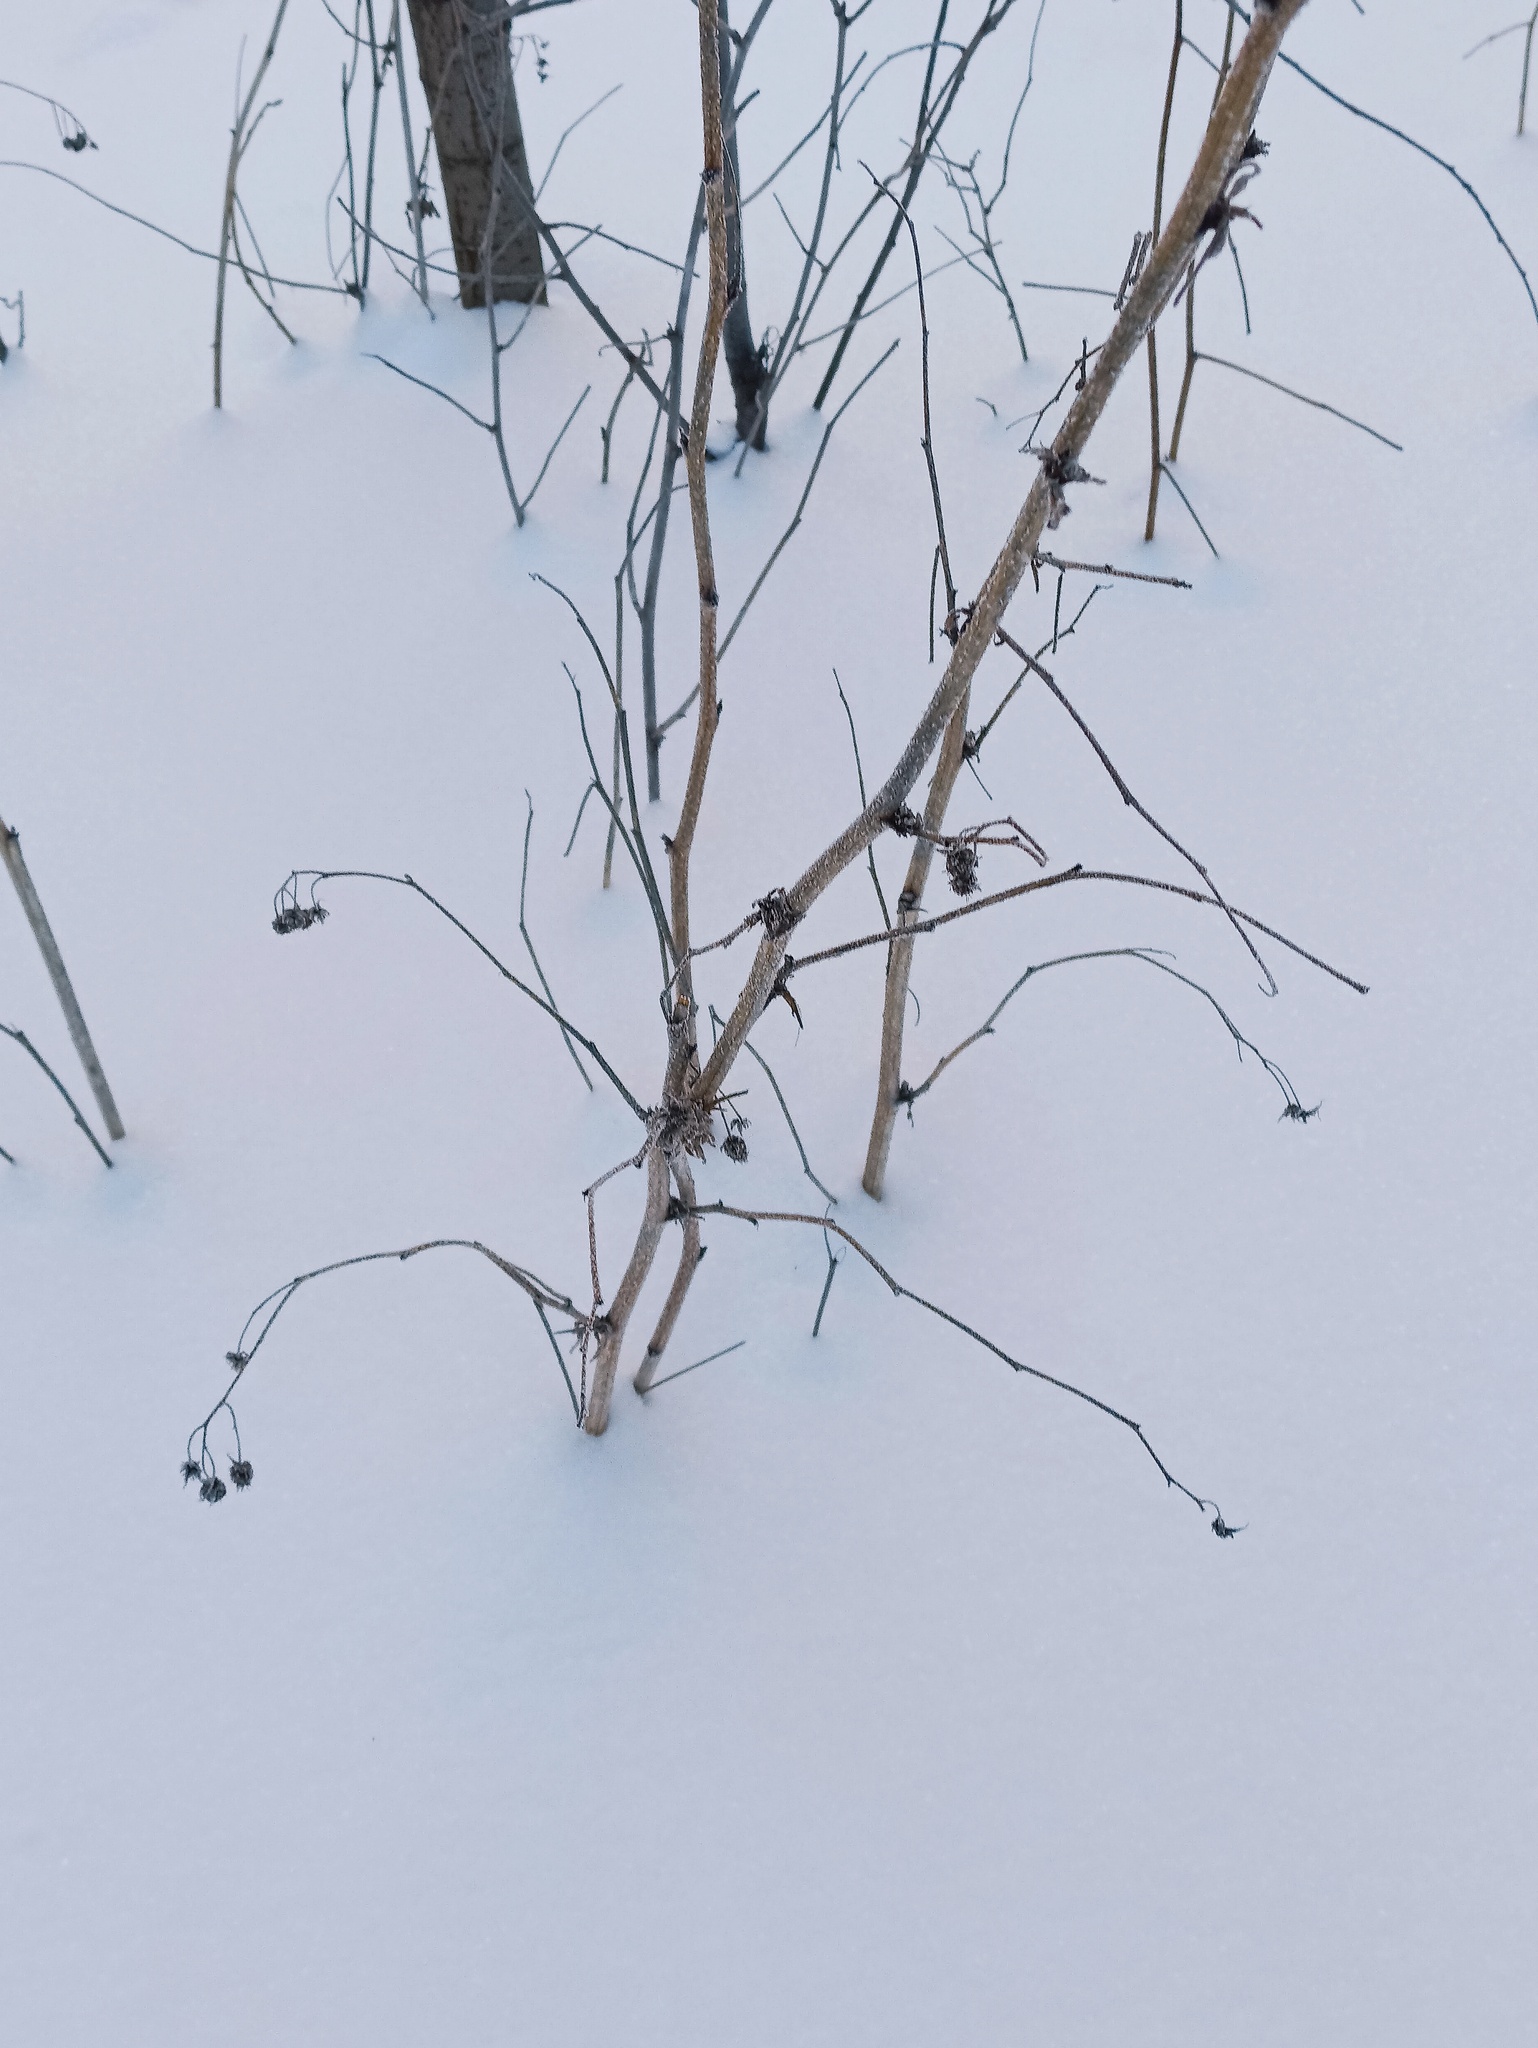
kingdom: Plantae
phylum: Tracheophyta
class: Magnoliopsida
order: Rosales
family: Rosaceae
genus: Rubus
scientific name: Rubus idaeus
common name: Raspberry
